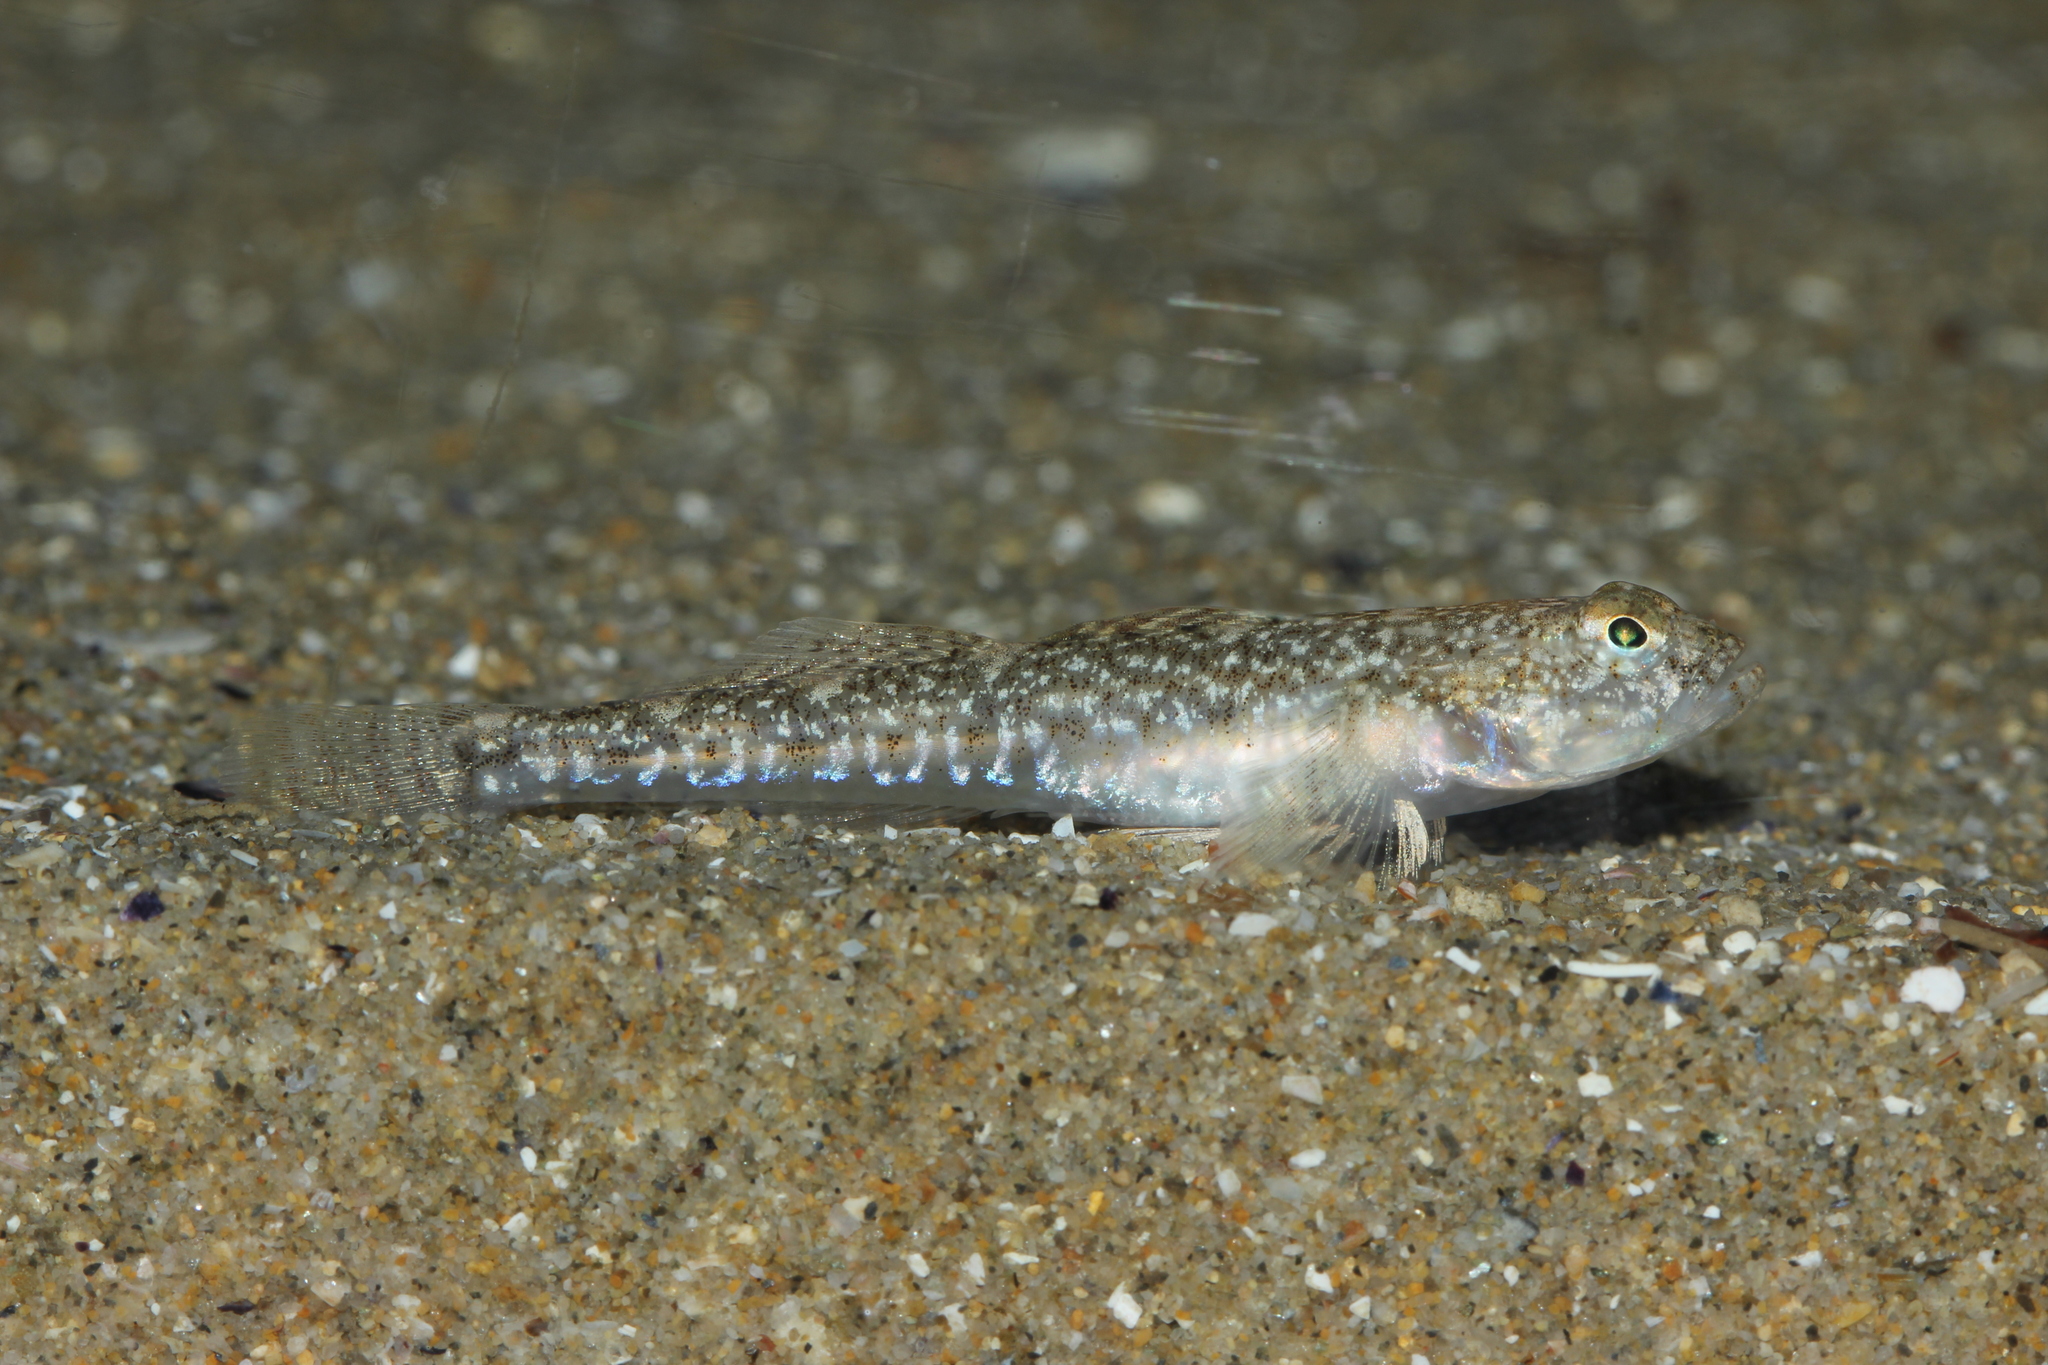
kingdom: Animalia
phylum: Chordata
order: Perciformes
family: Gobiidae
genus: Pomatoschistus
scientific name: Pomatoschistus marmoratus
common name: Marbled goby
